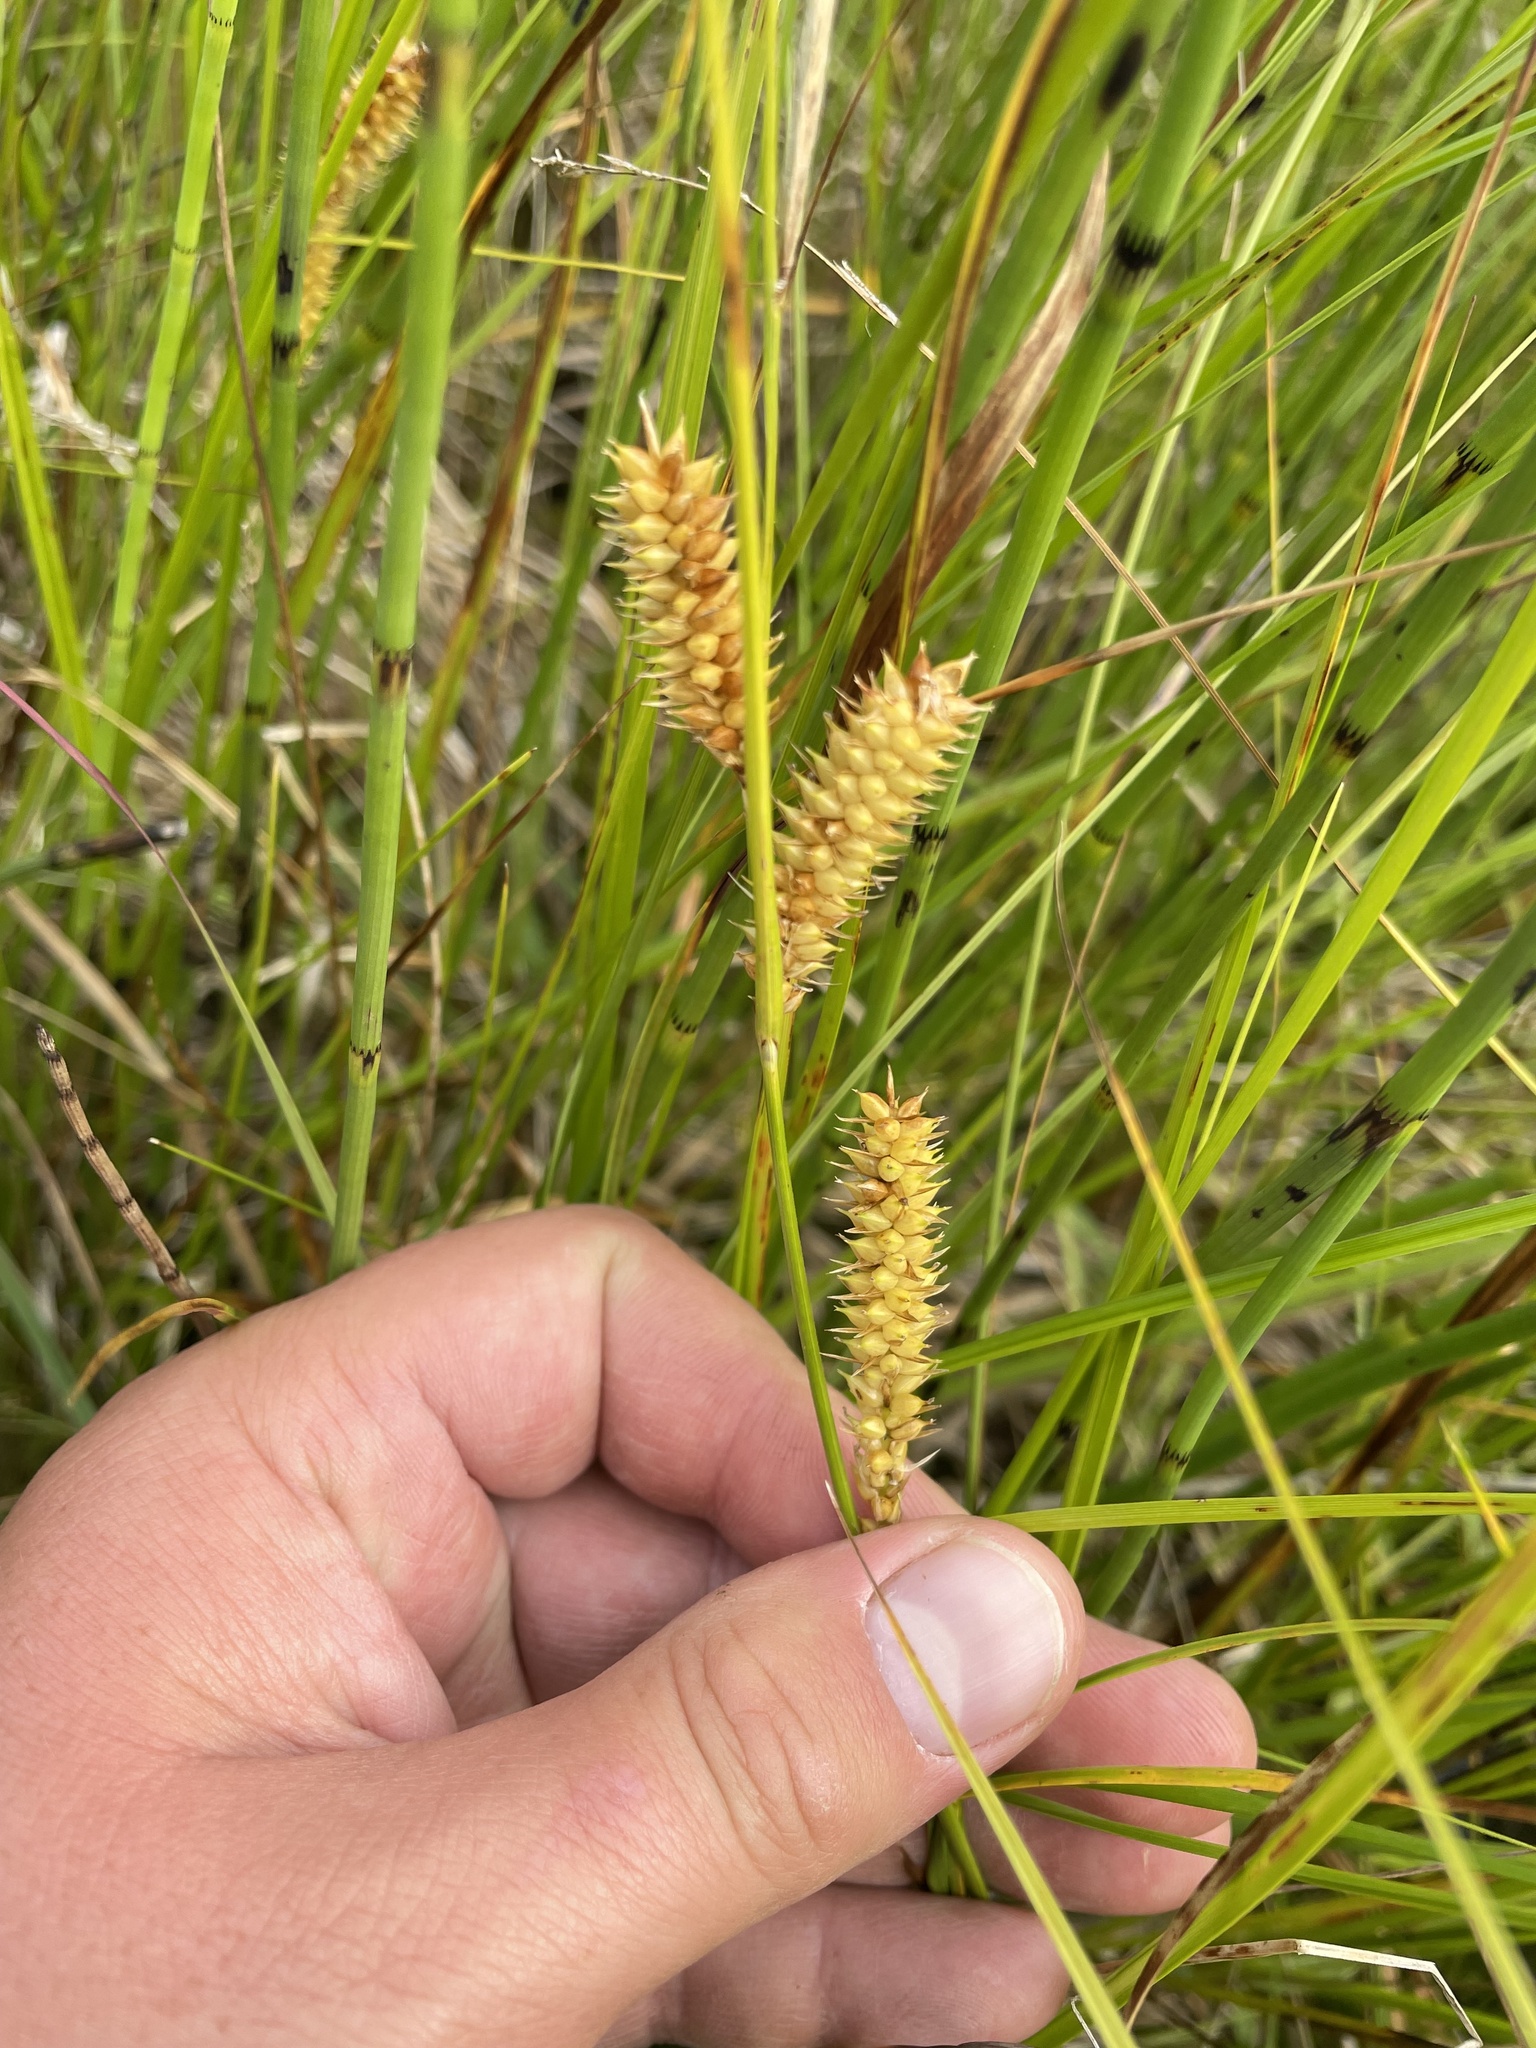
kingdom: Plantae
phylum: Tracheophyta
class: Liliopsida
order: Poales
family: Cyperaceae
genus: Carex
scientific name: Carex utriculata
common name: Beaked sedge
